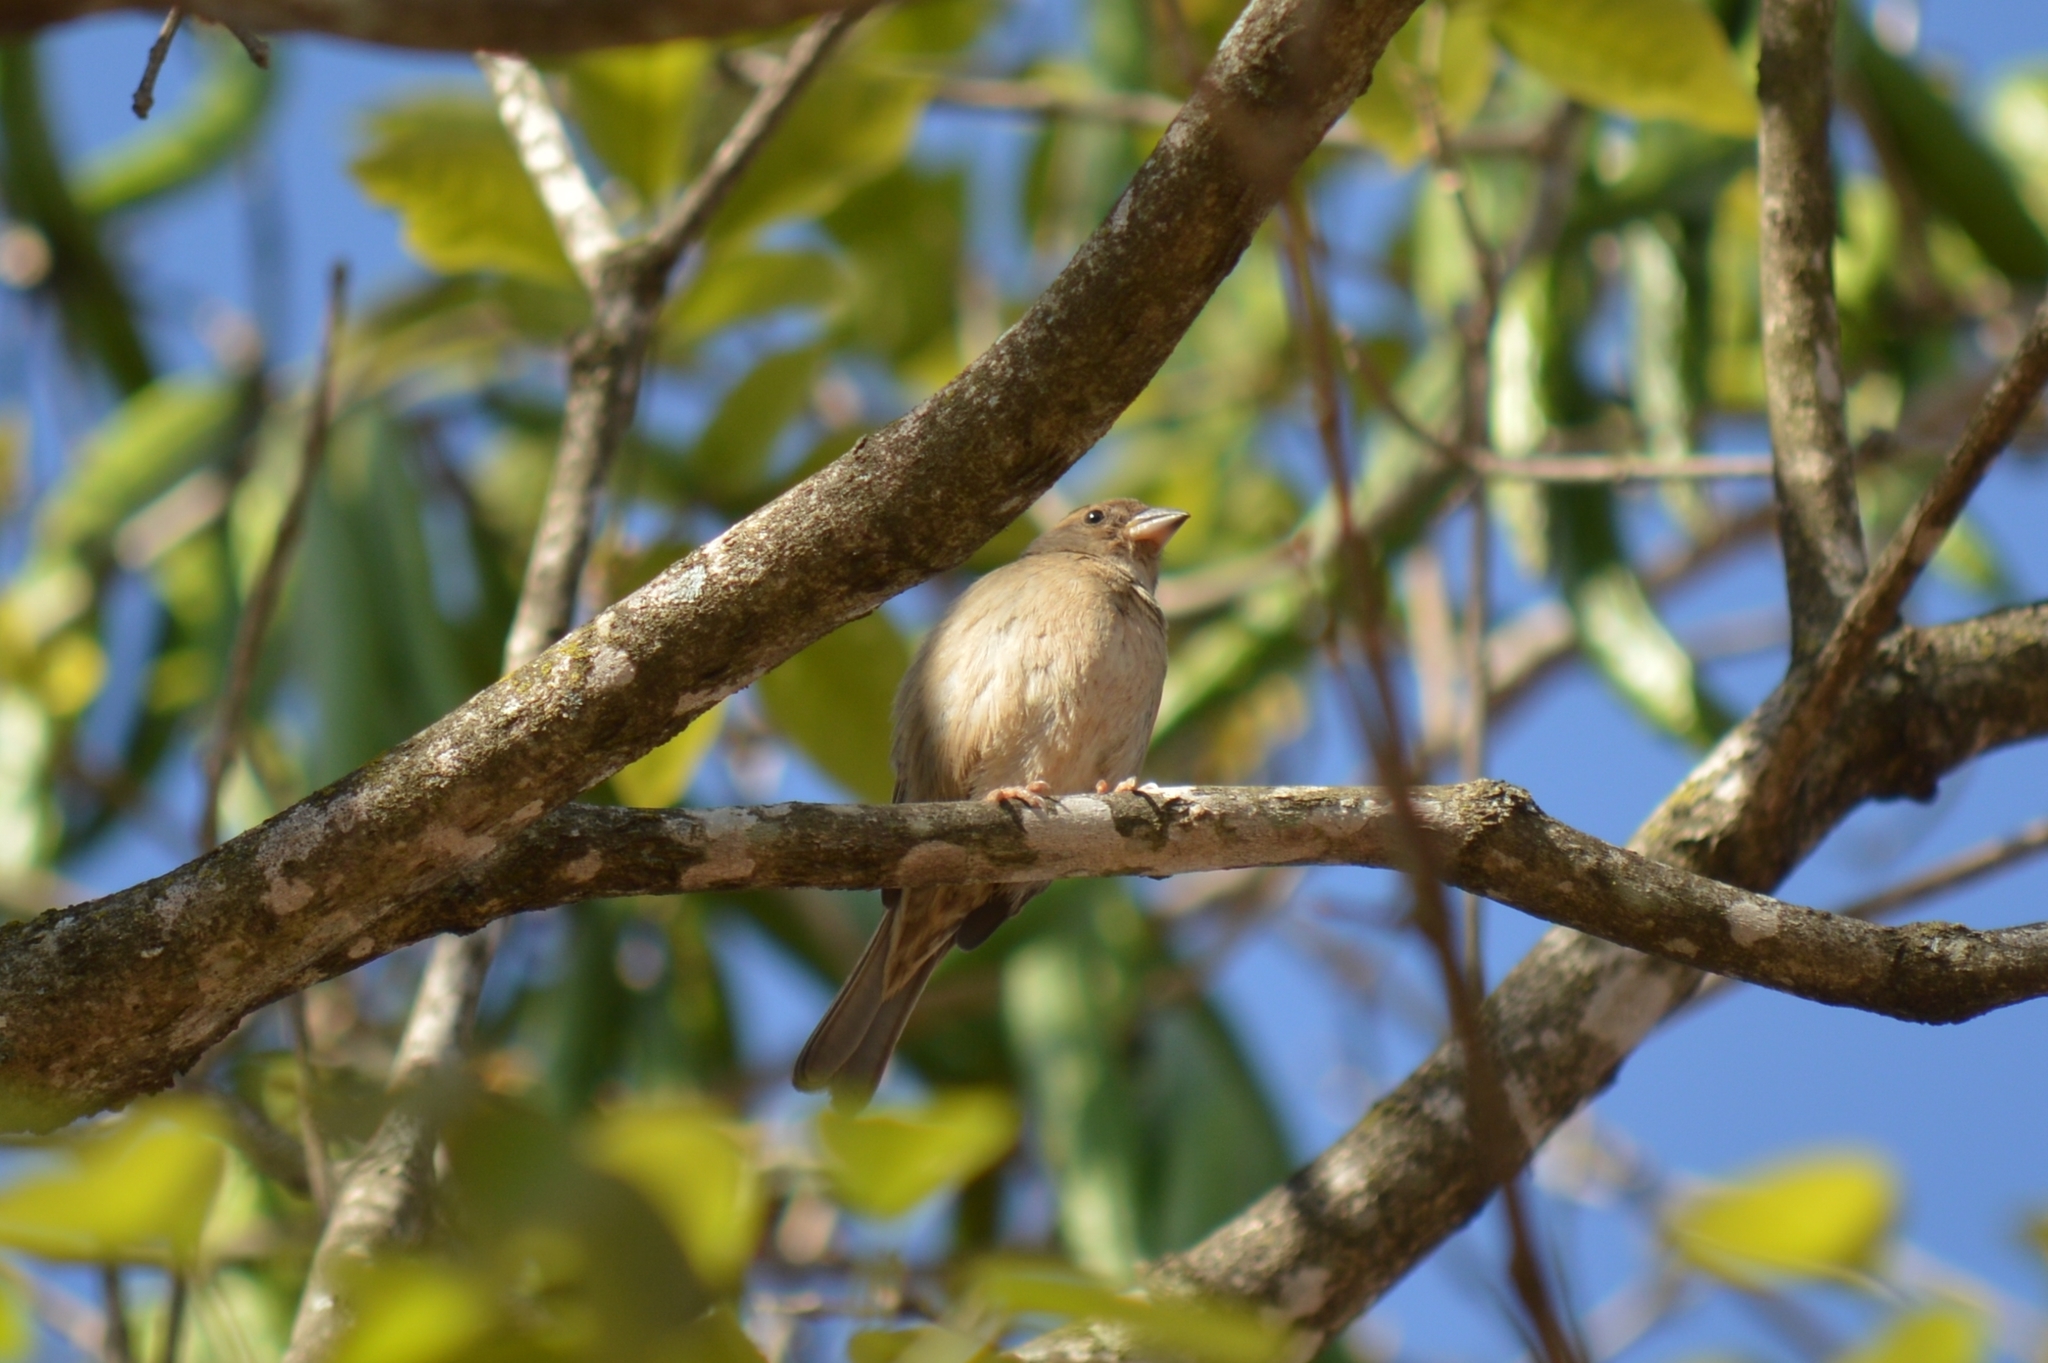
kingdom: Animalia
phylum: Chordata
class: Aves
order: Passeriformes
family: Passeridae
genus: Passer
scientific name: Passer domesticus
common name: House sparrow
